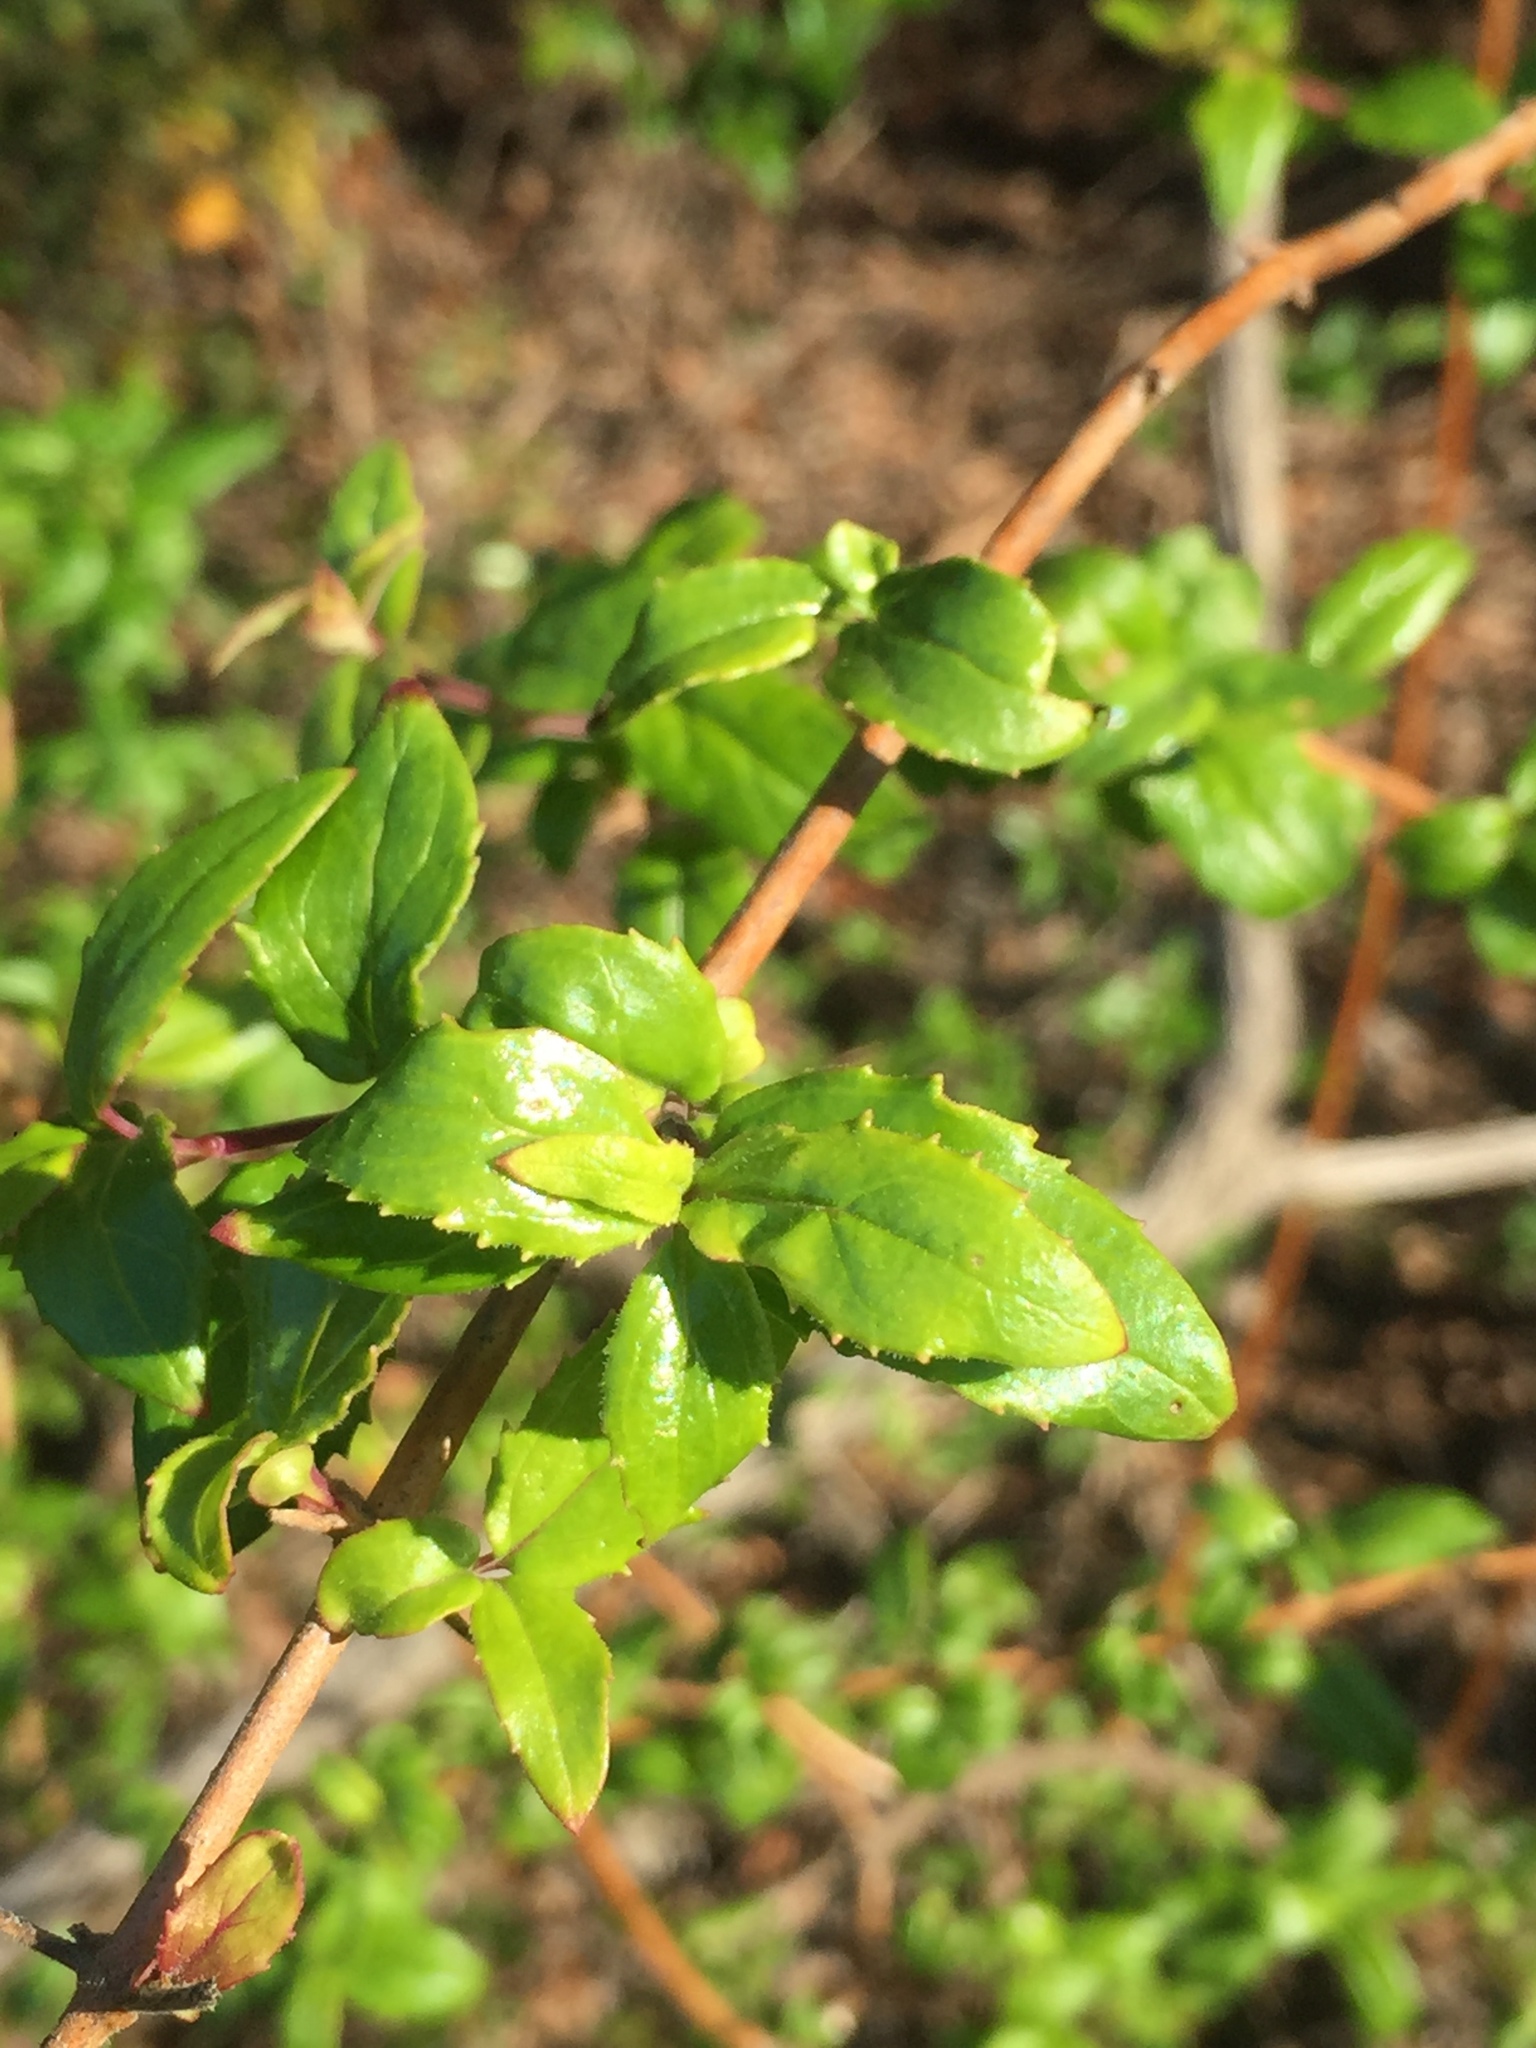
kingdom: Plantae
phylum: Tracheophyta
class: Magnoliopsida
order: Lamiales
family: Plantaginaceae
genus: Keckiella
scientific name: Keckiella cordifolia
